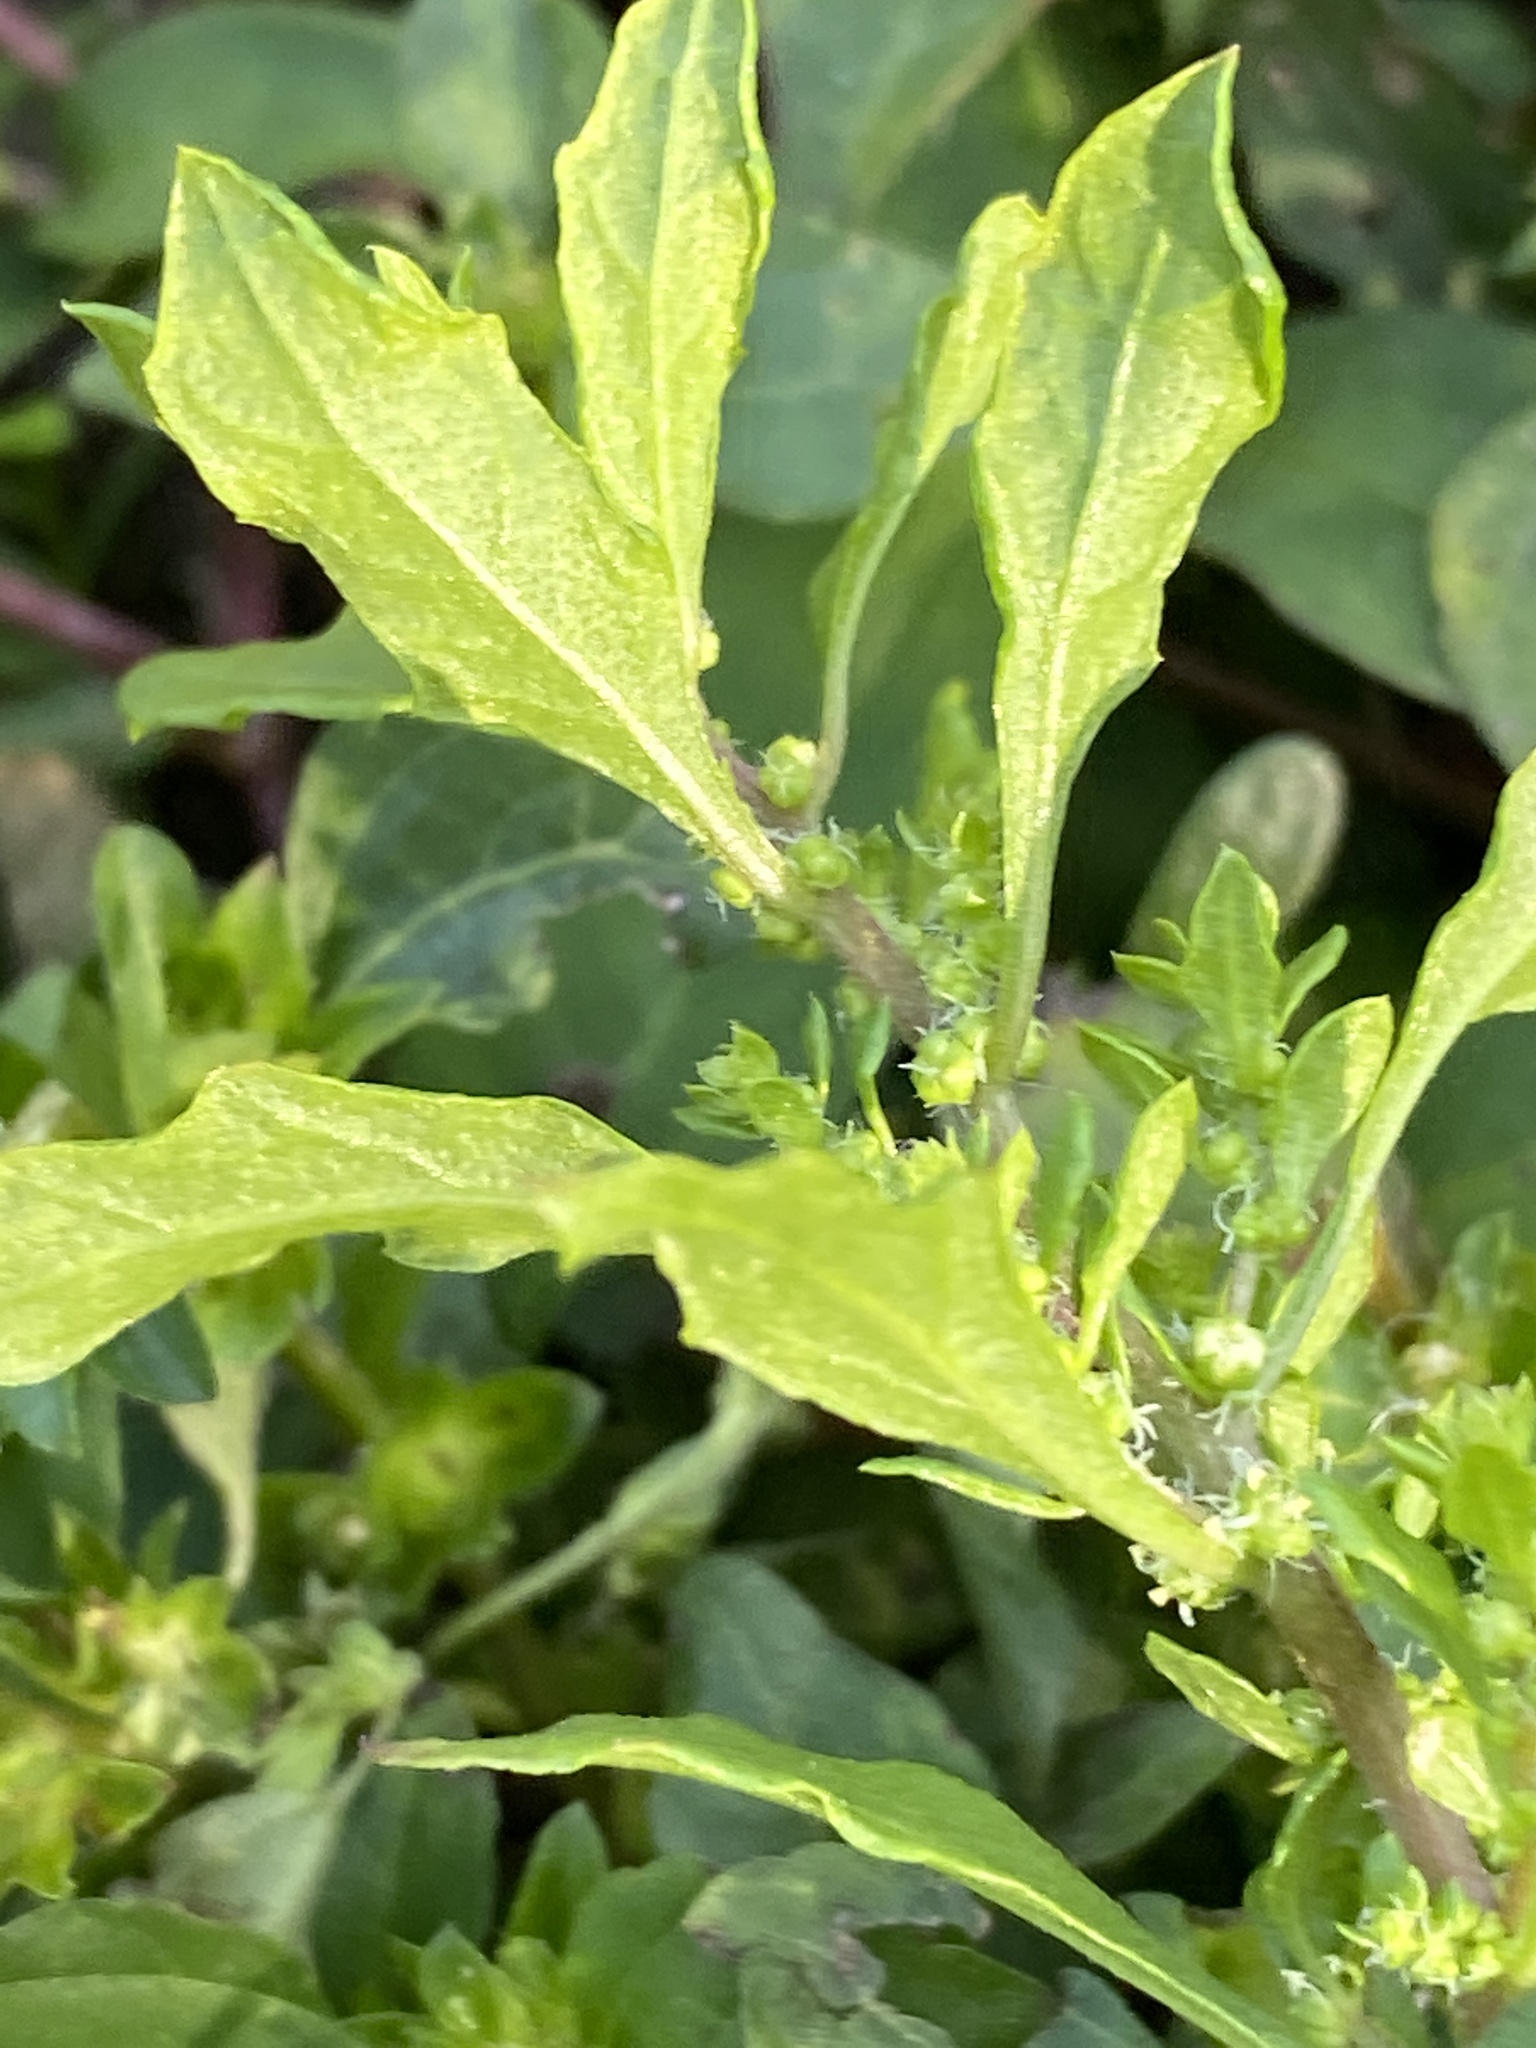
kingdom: Plantae
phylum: Tracheophyta
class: Magnoliopsida
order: Caryophyllales
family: Amaranthaceae
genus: Dysphania
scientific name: Dysphania ambrosioides
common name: Wormseed
